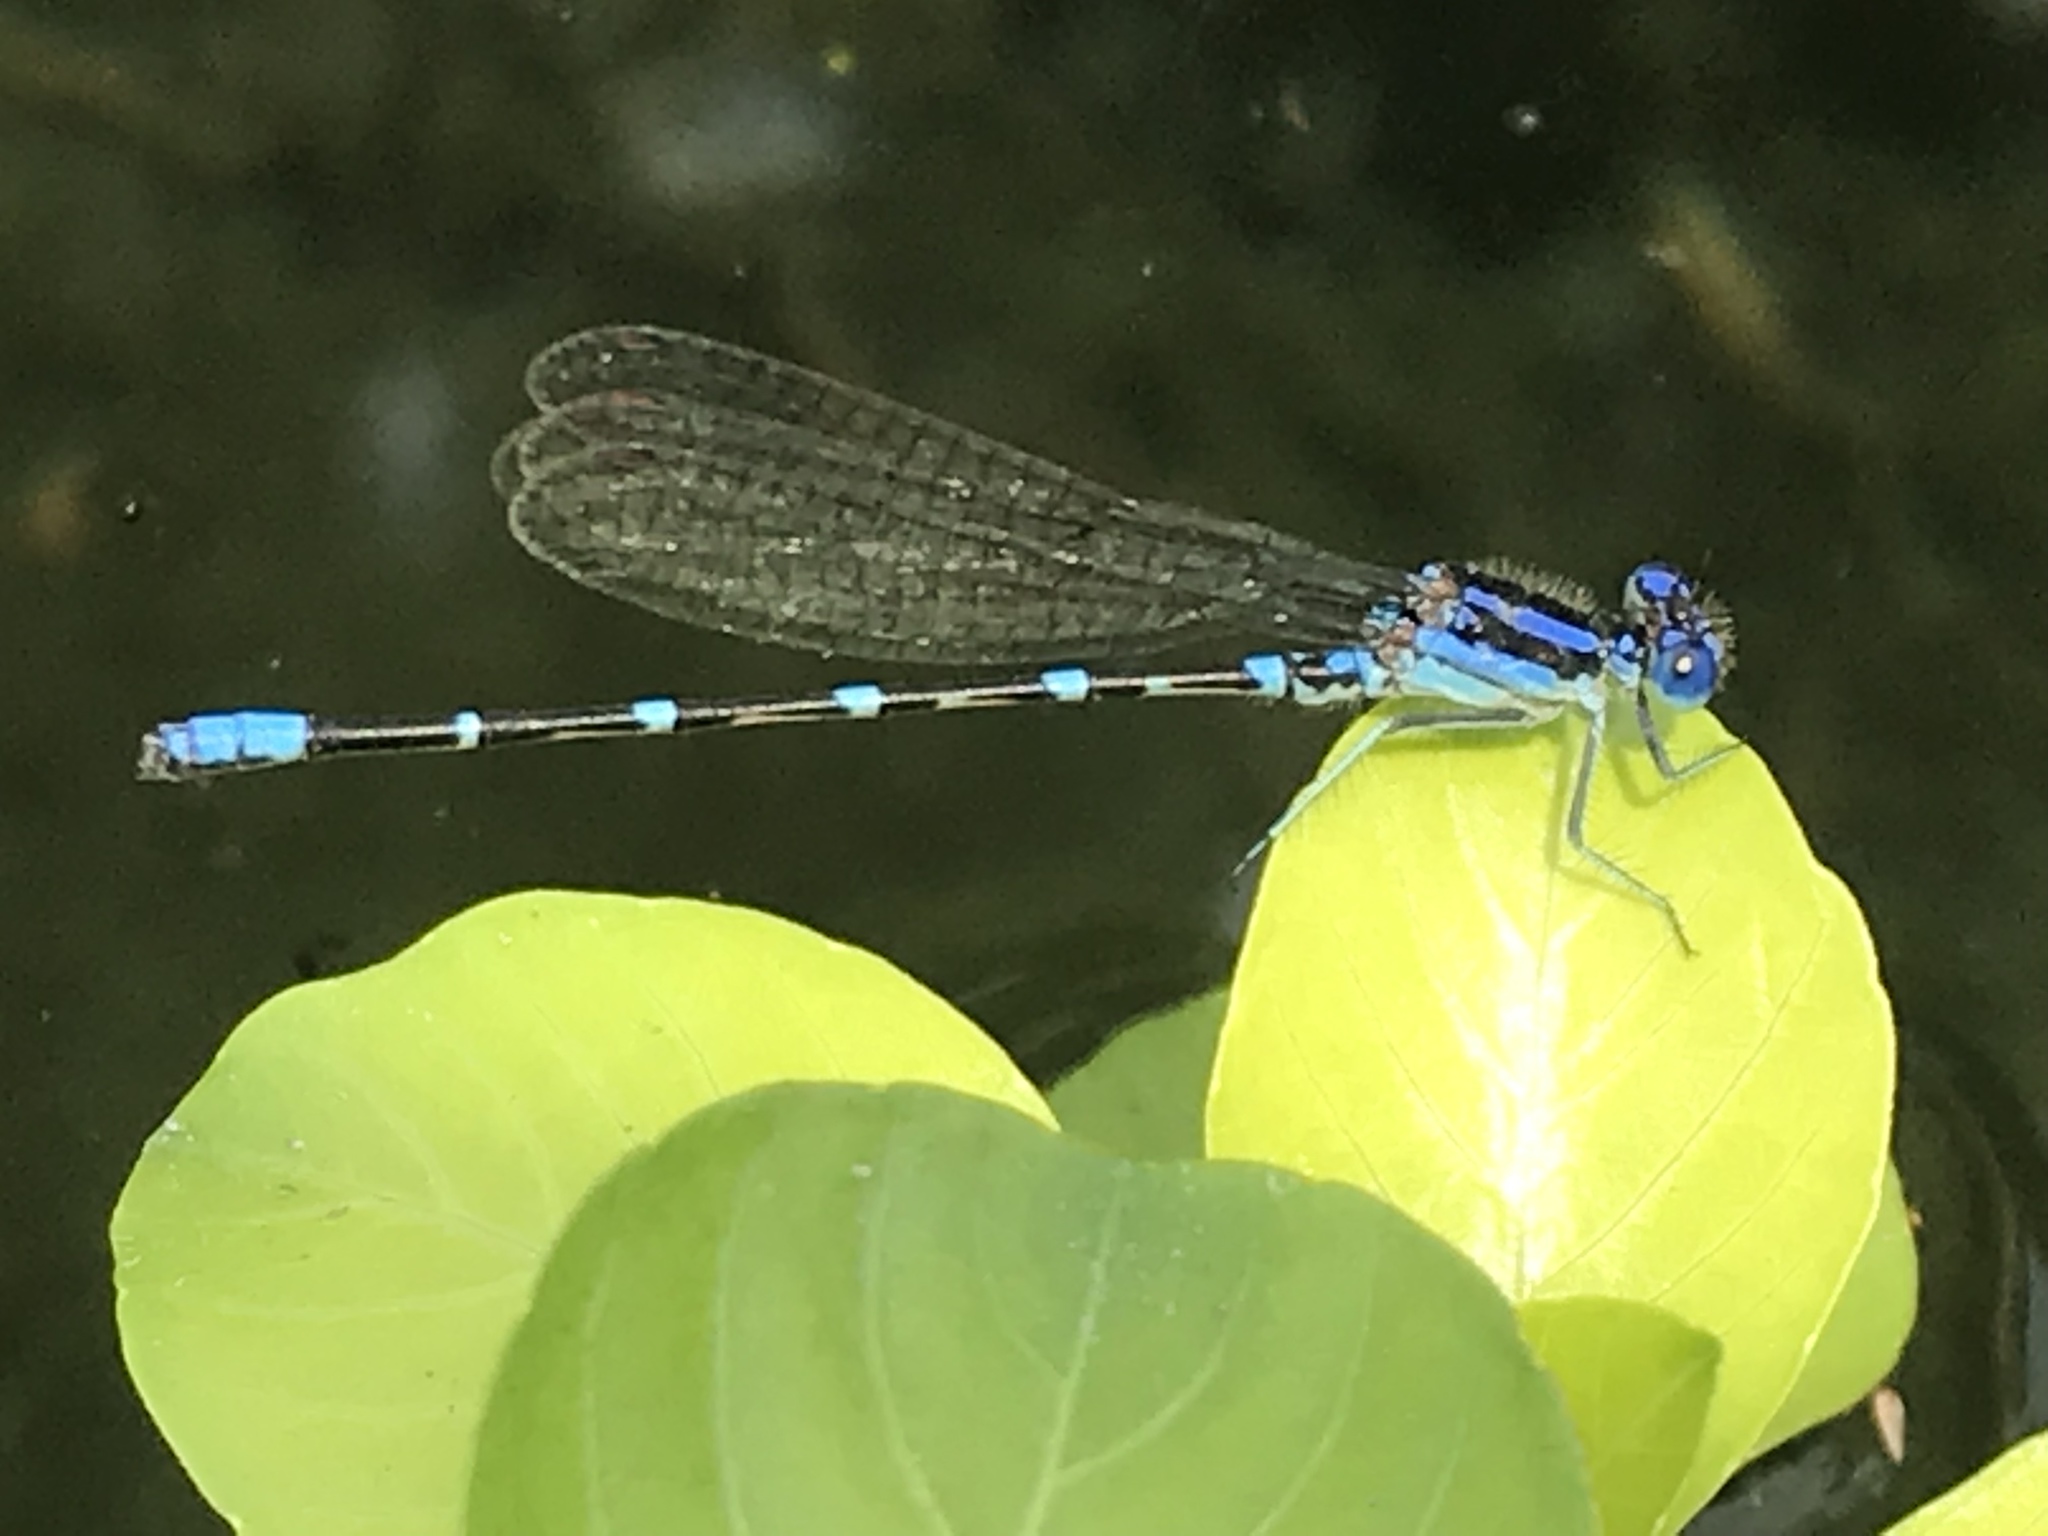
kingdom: Animalia
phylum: Arthropoda
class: Insecta
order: Odonata
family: Coenagrionidae
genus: Argia
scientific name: Argia sedula
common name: Blue-ringed dancer
